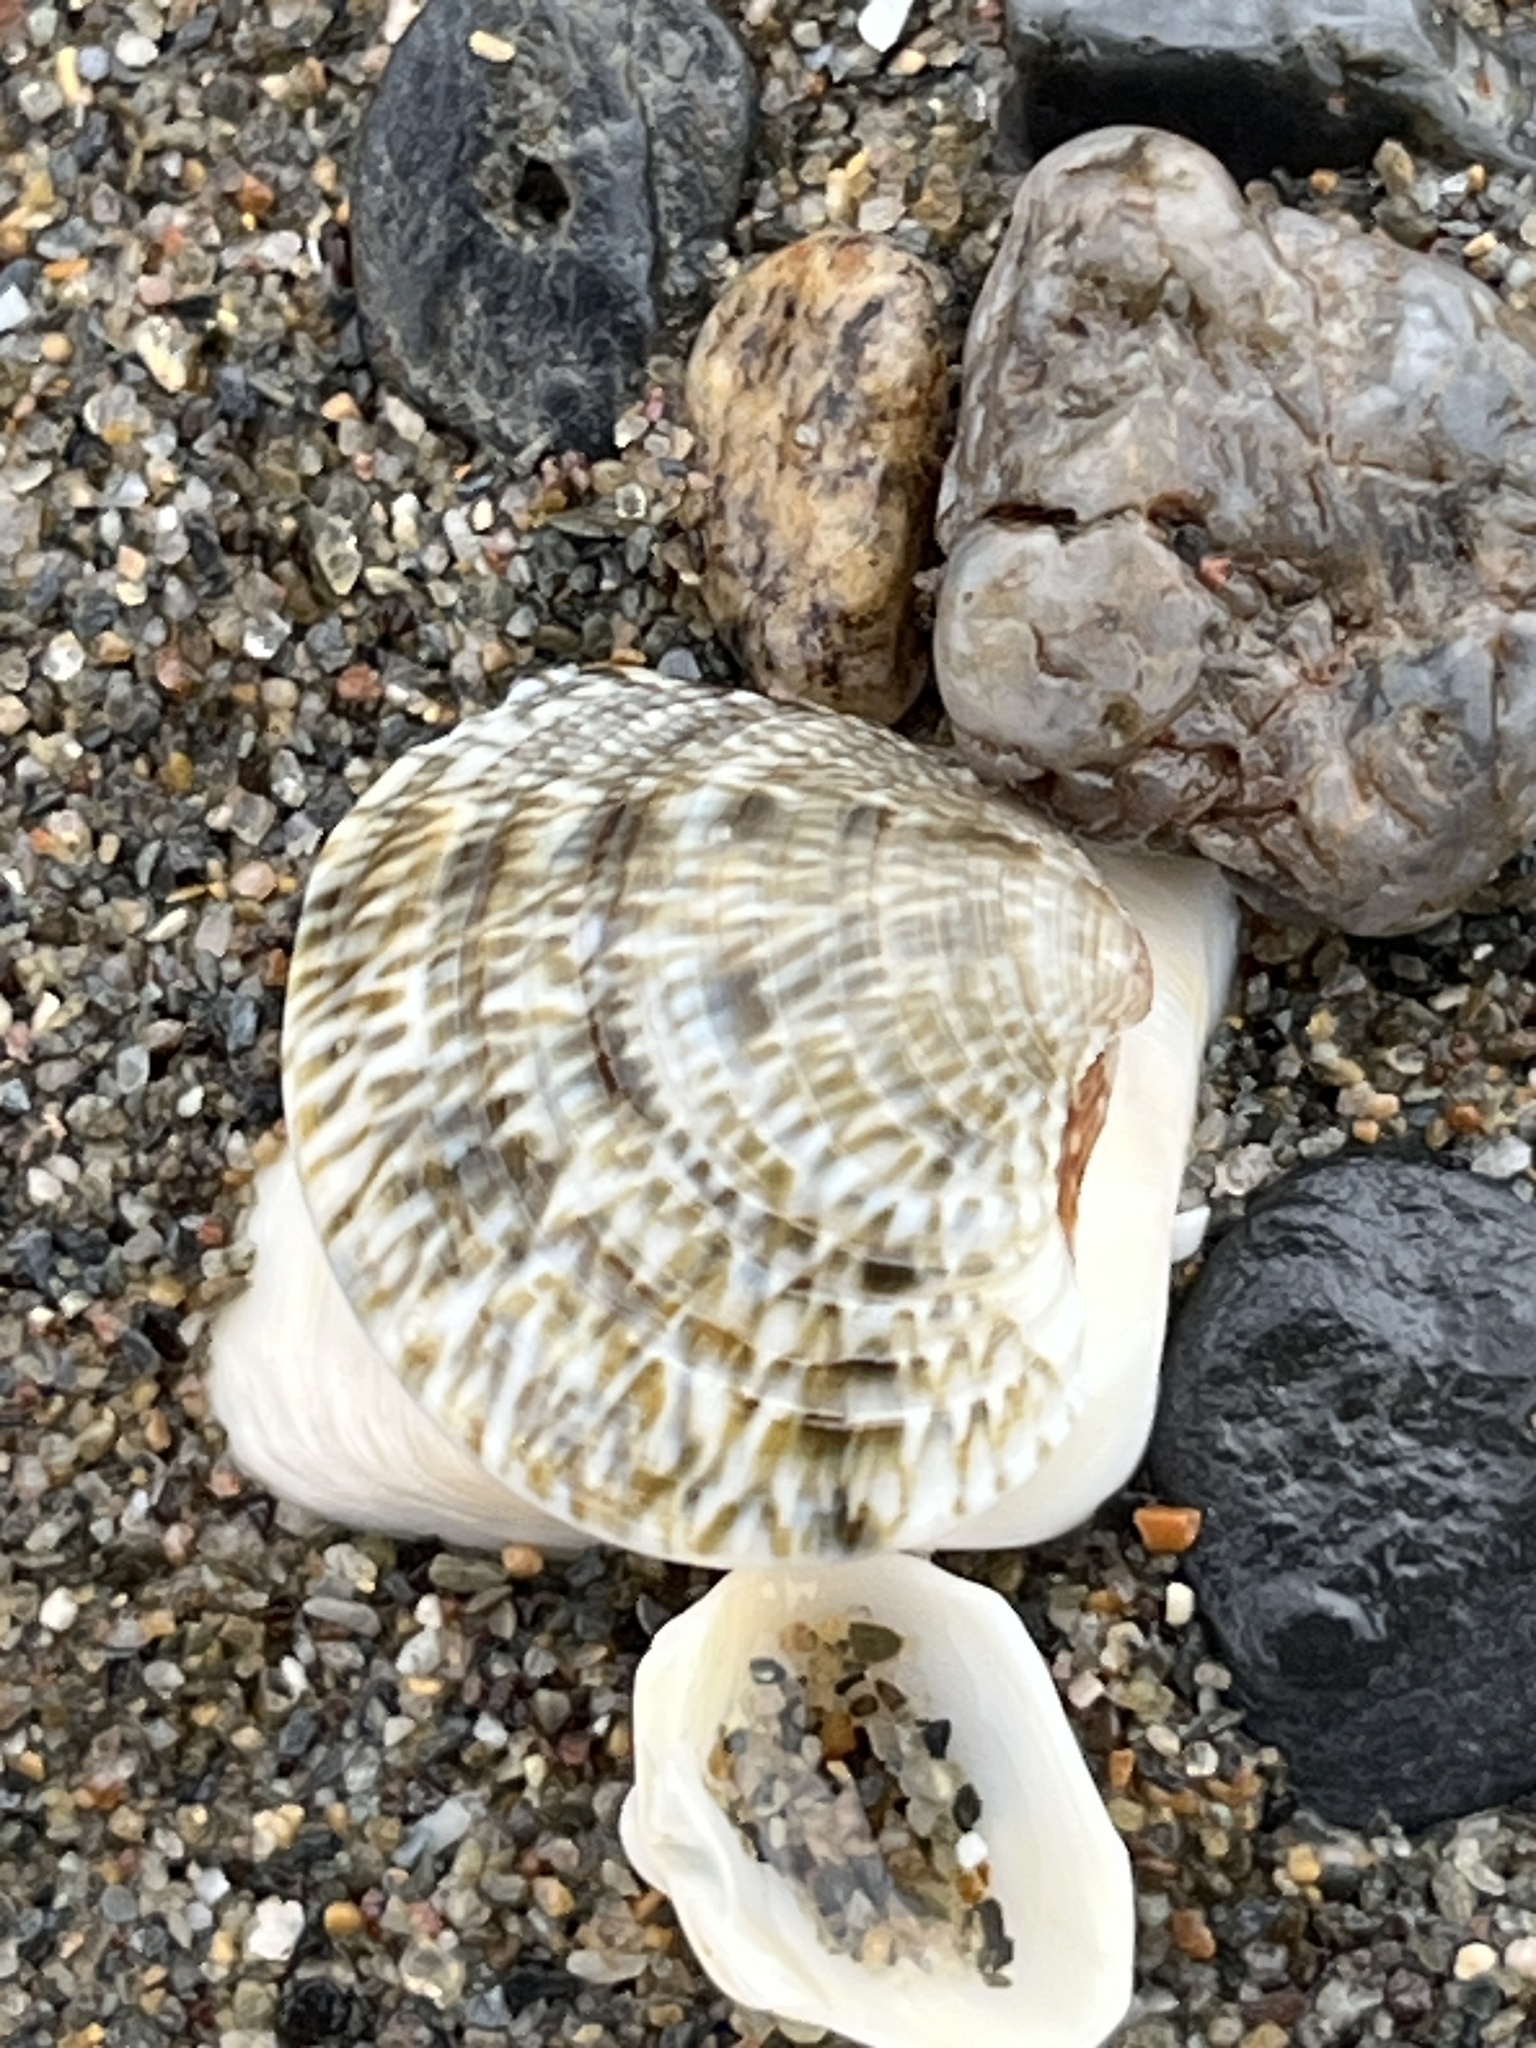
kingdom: Animalia
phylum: Mollusca
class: Bivalvia
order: Venerida
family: Veneridae
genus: Chamelea
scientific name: Chamelea gallina
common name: Chicken venus
